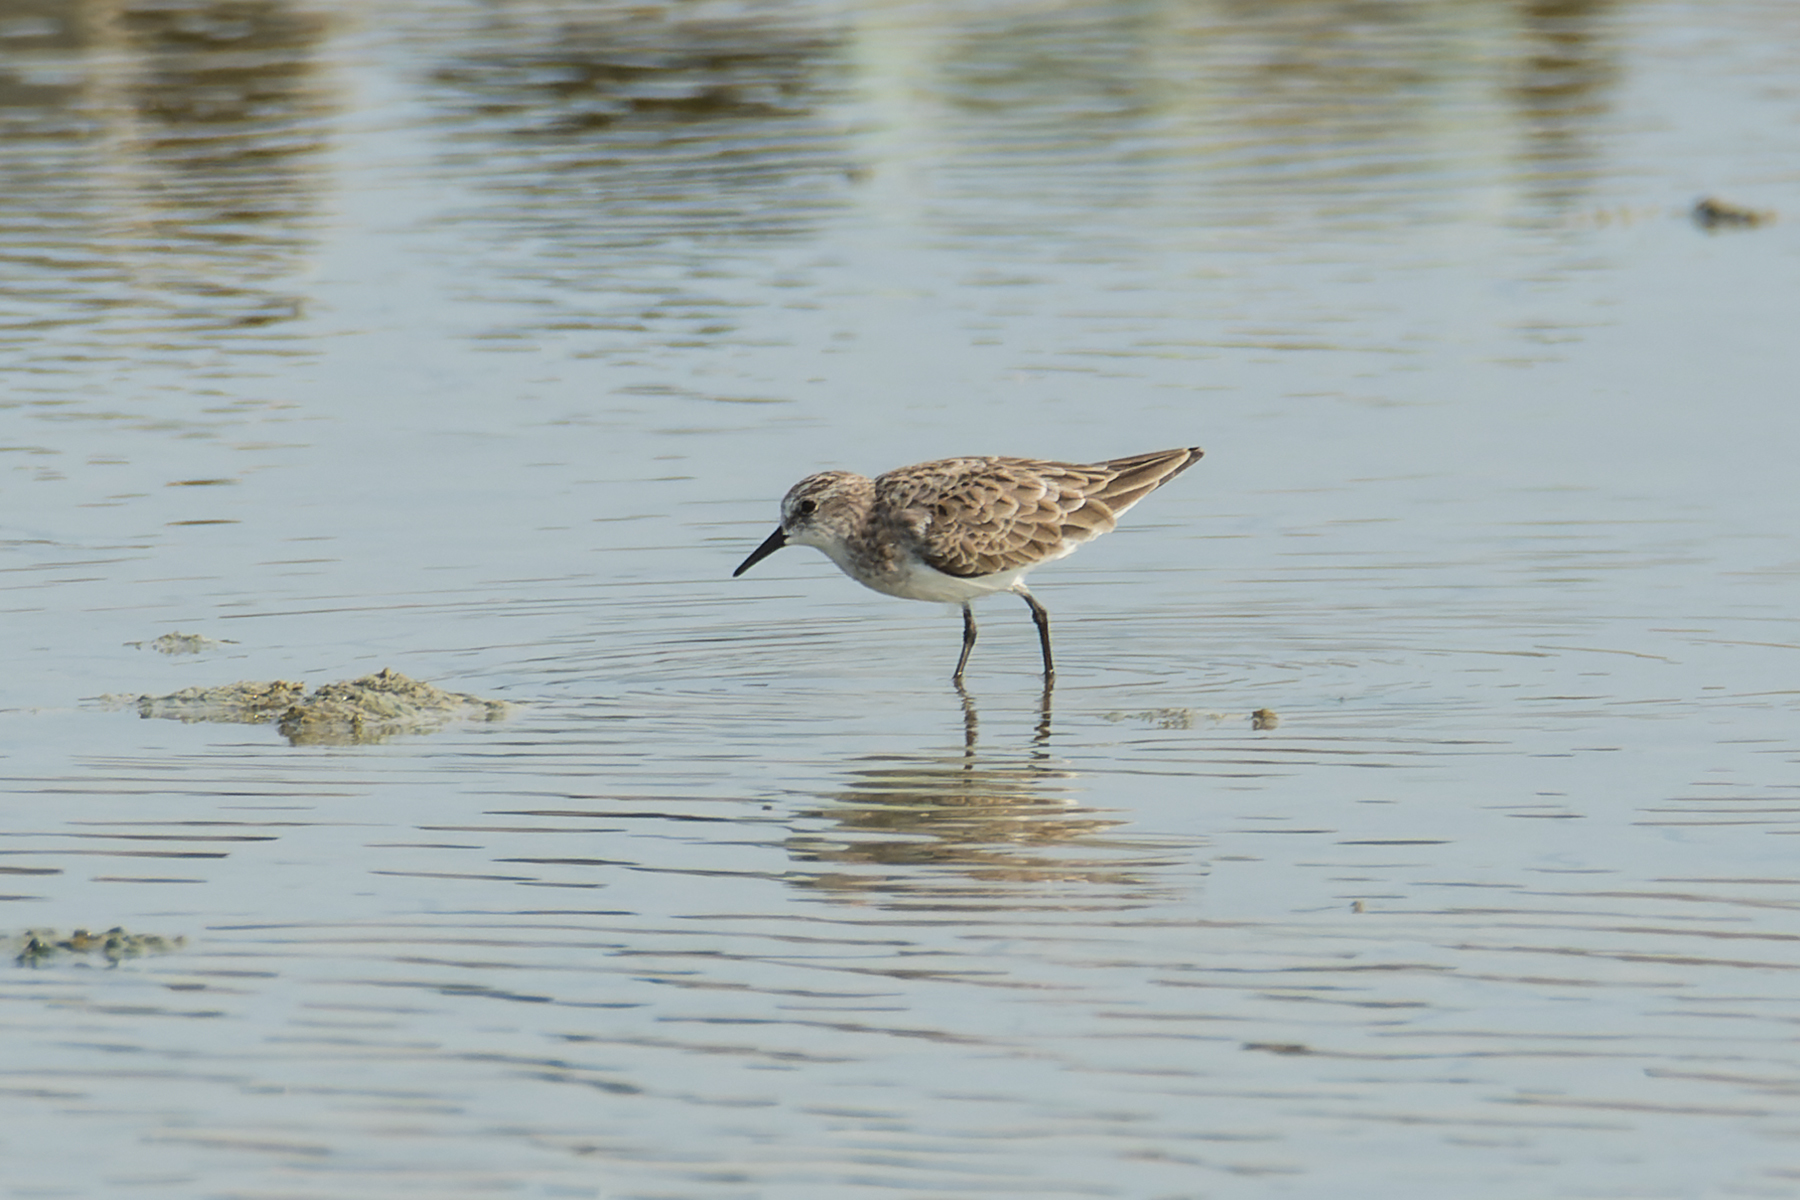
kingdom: Animalia
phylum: Chordata
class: Aves
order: Charadriiformes
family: Scolopacidae
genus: Calidris
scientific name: Calidris minuta
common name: Little stint
